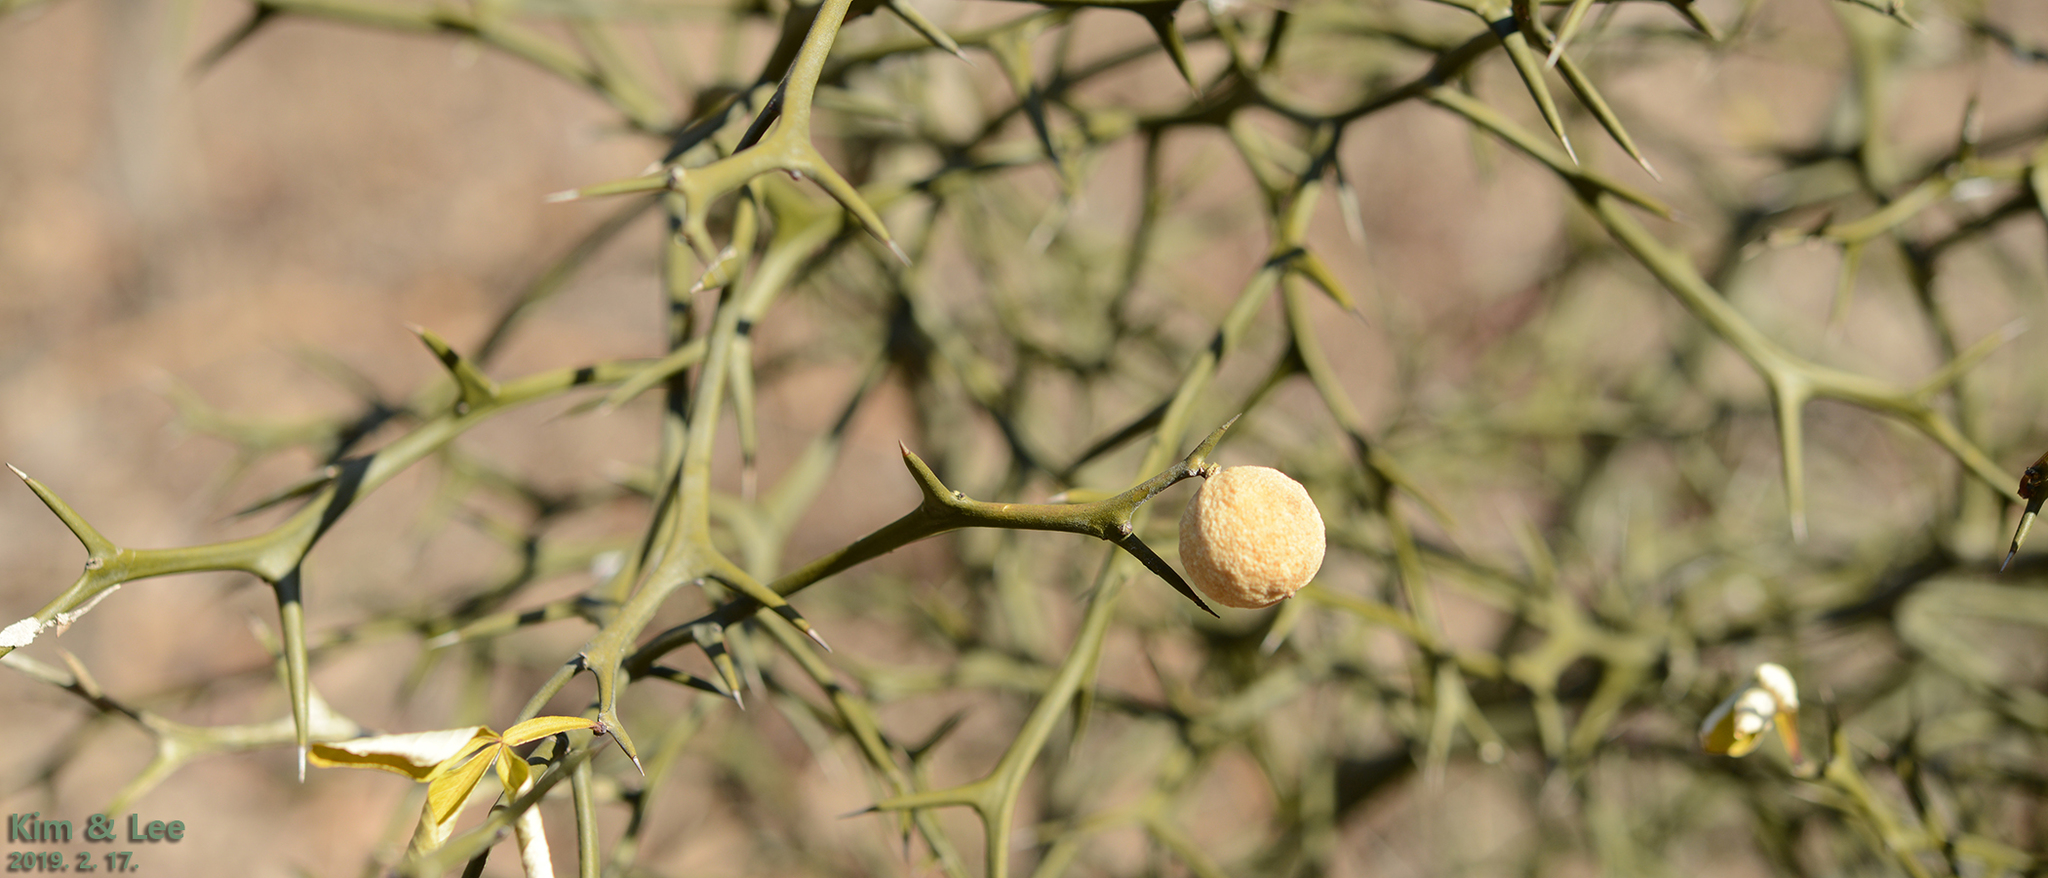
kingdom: Plantae
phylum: Tracheophyta
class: Magnoliopsida
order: Sapindales
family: Rutaceae
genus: Citrus
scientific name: Citrus trifoliata
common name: Japanese bitter-orange
